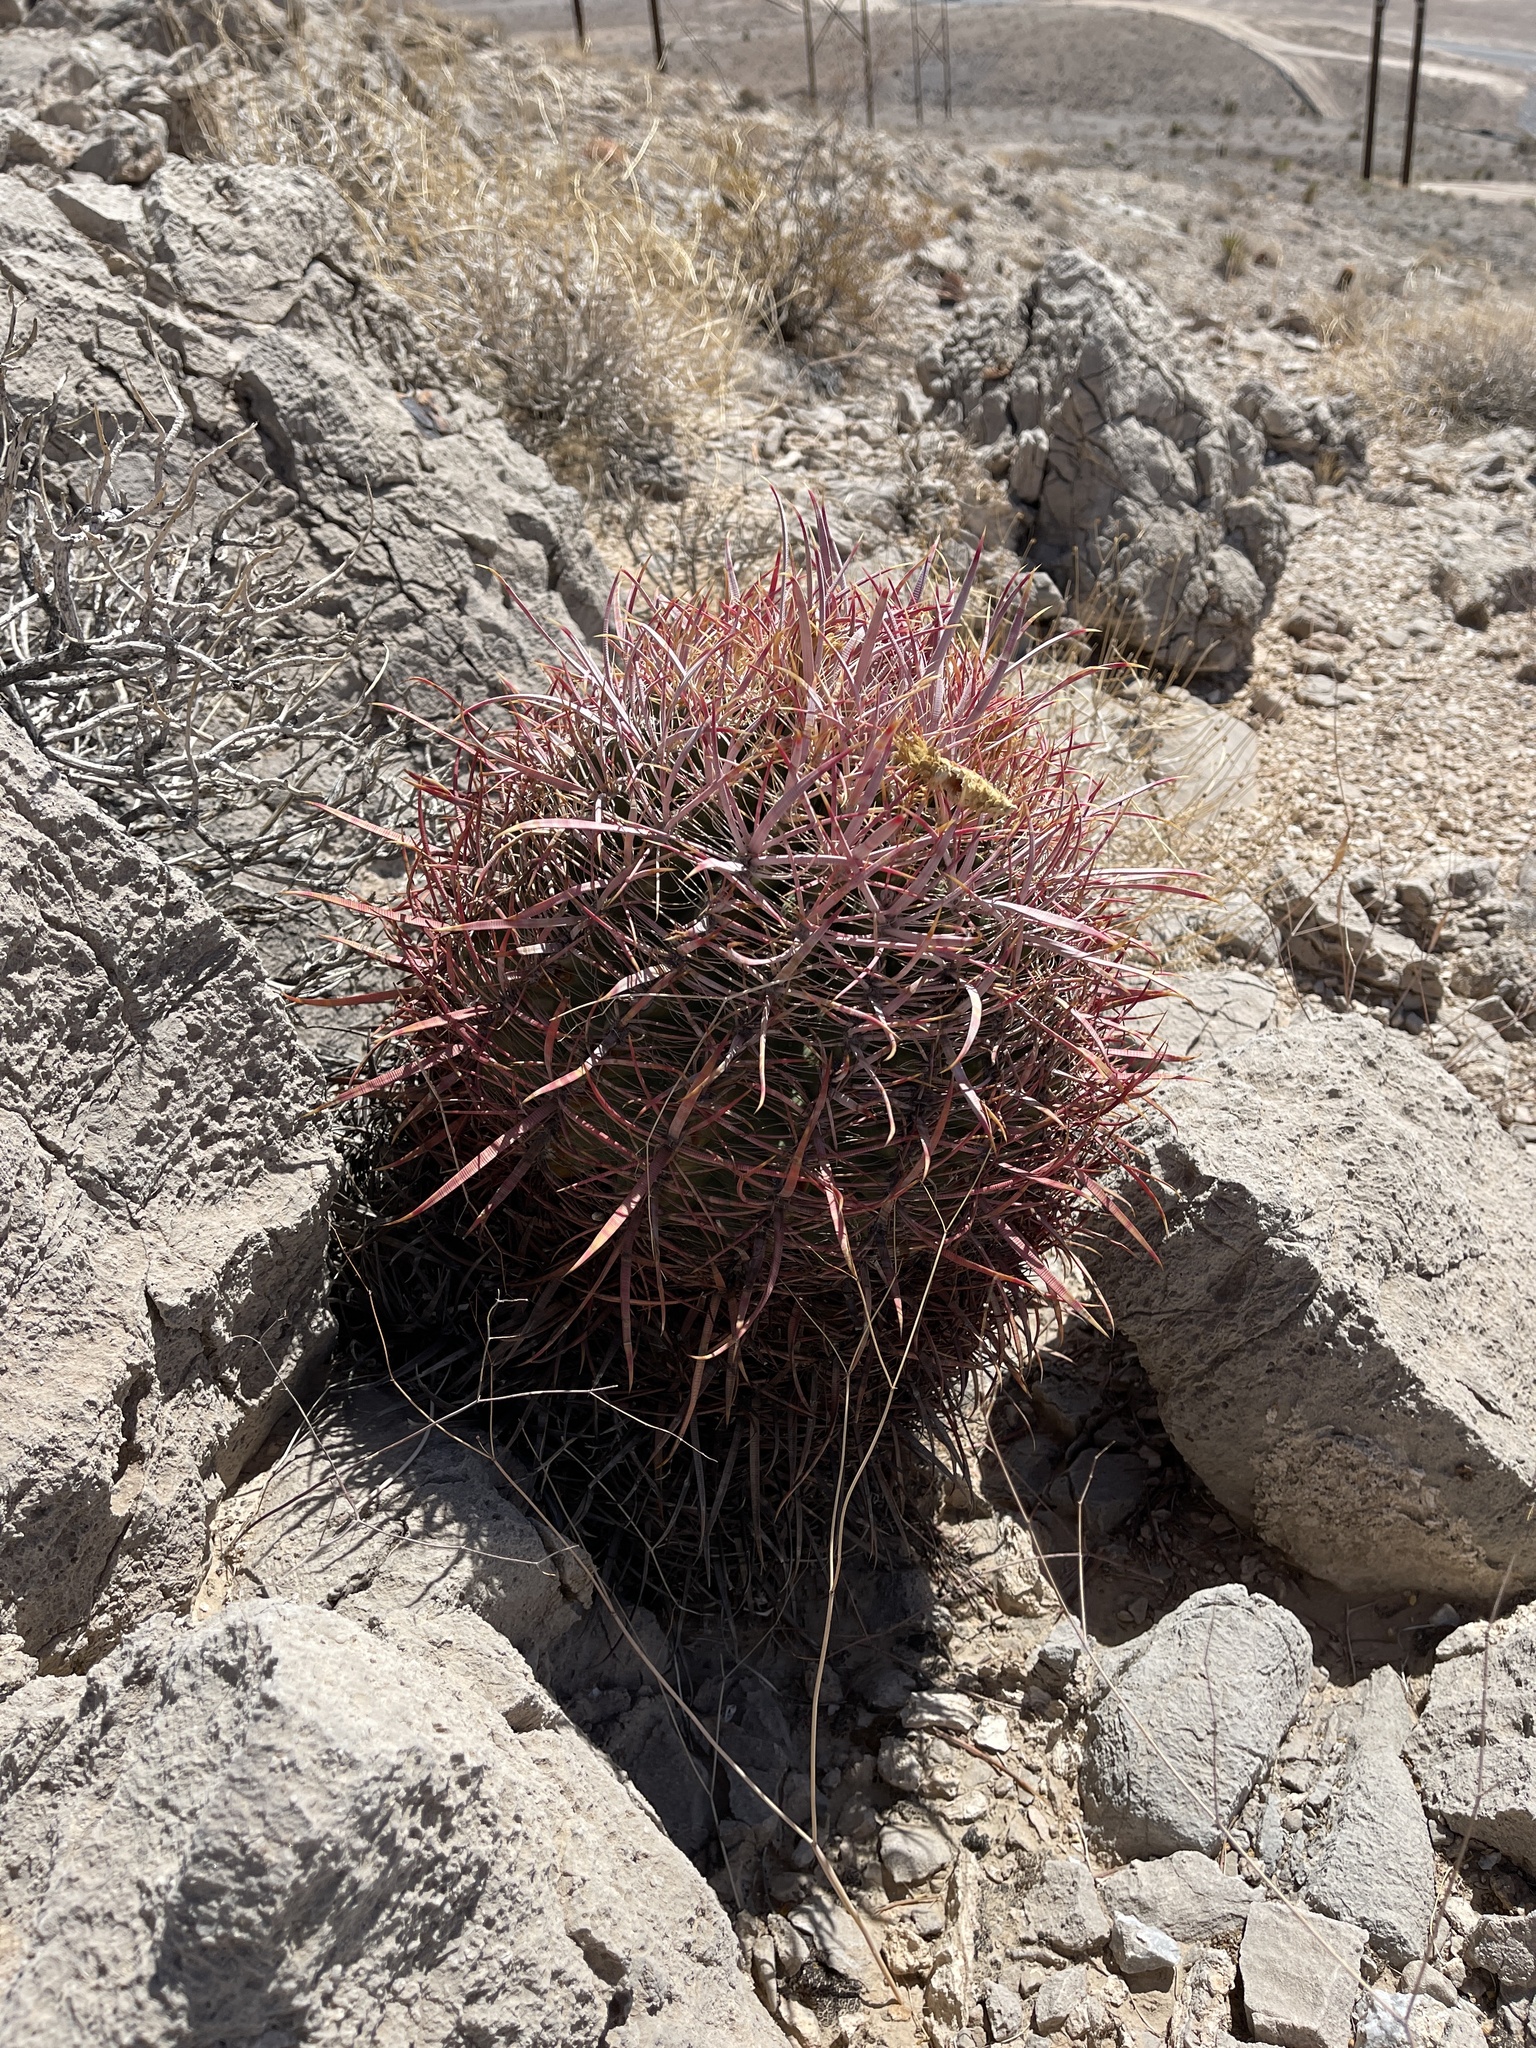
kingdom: Plantae
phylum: Tracheophyta
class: Magnoliopsida
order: Caryophyllales
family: Cactaceae
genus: Ferocactus
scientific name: Ferocactus cylindraceus
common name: California barrel cactus
